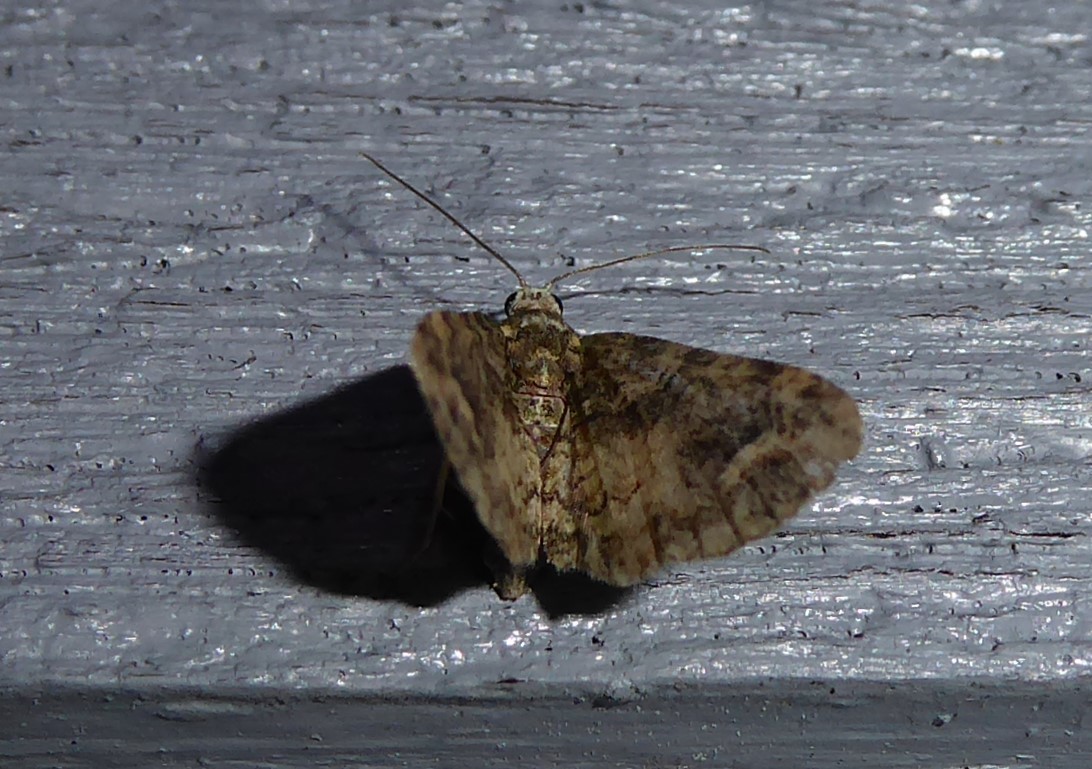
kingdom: Animalia
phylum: Arthropoda
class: Insecta
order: Lepidoptera
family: Geometridae
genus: Idaea
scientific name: Idaea mutanda
